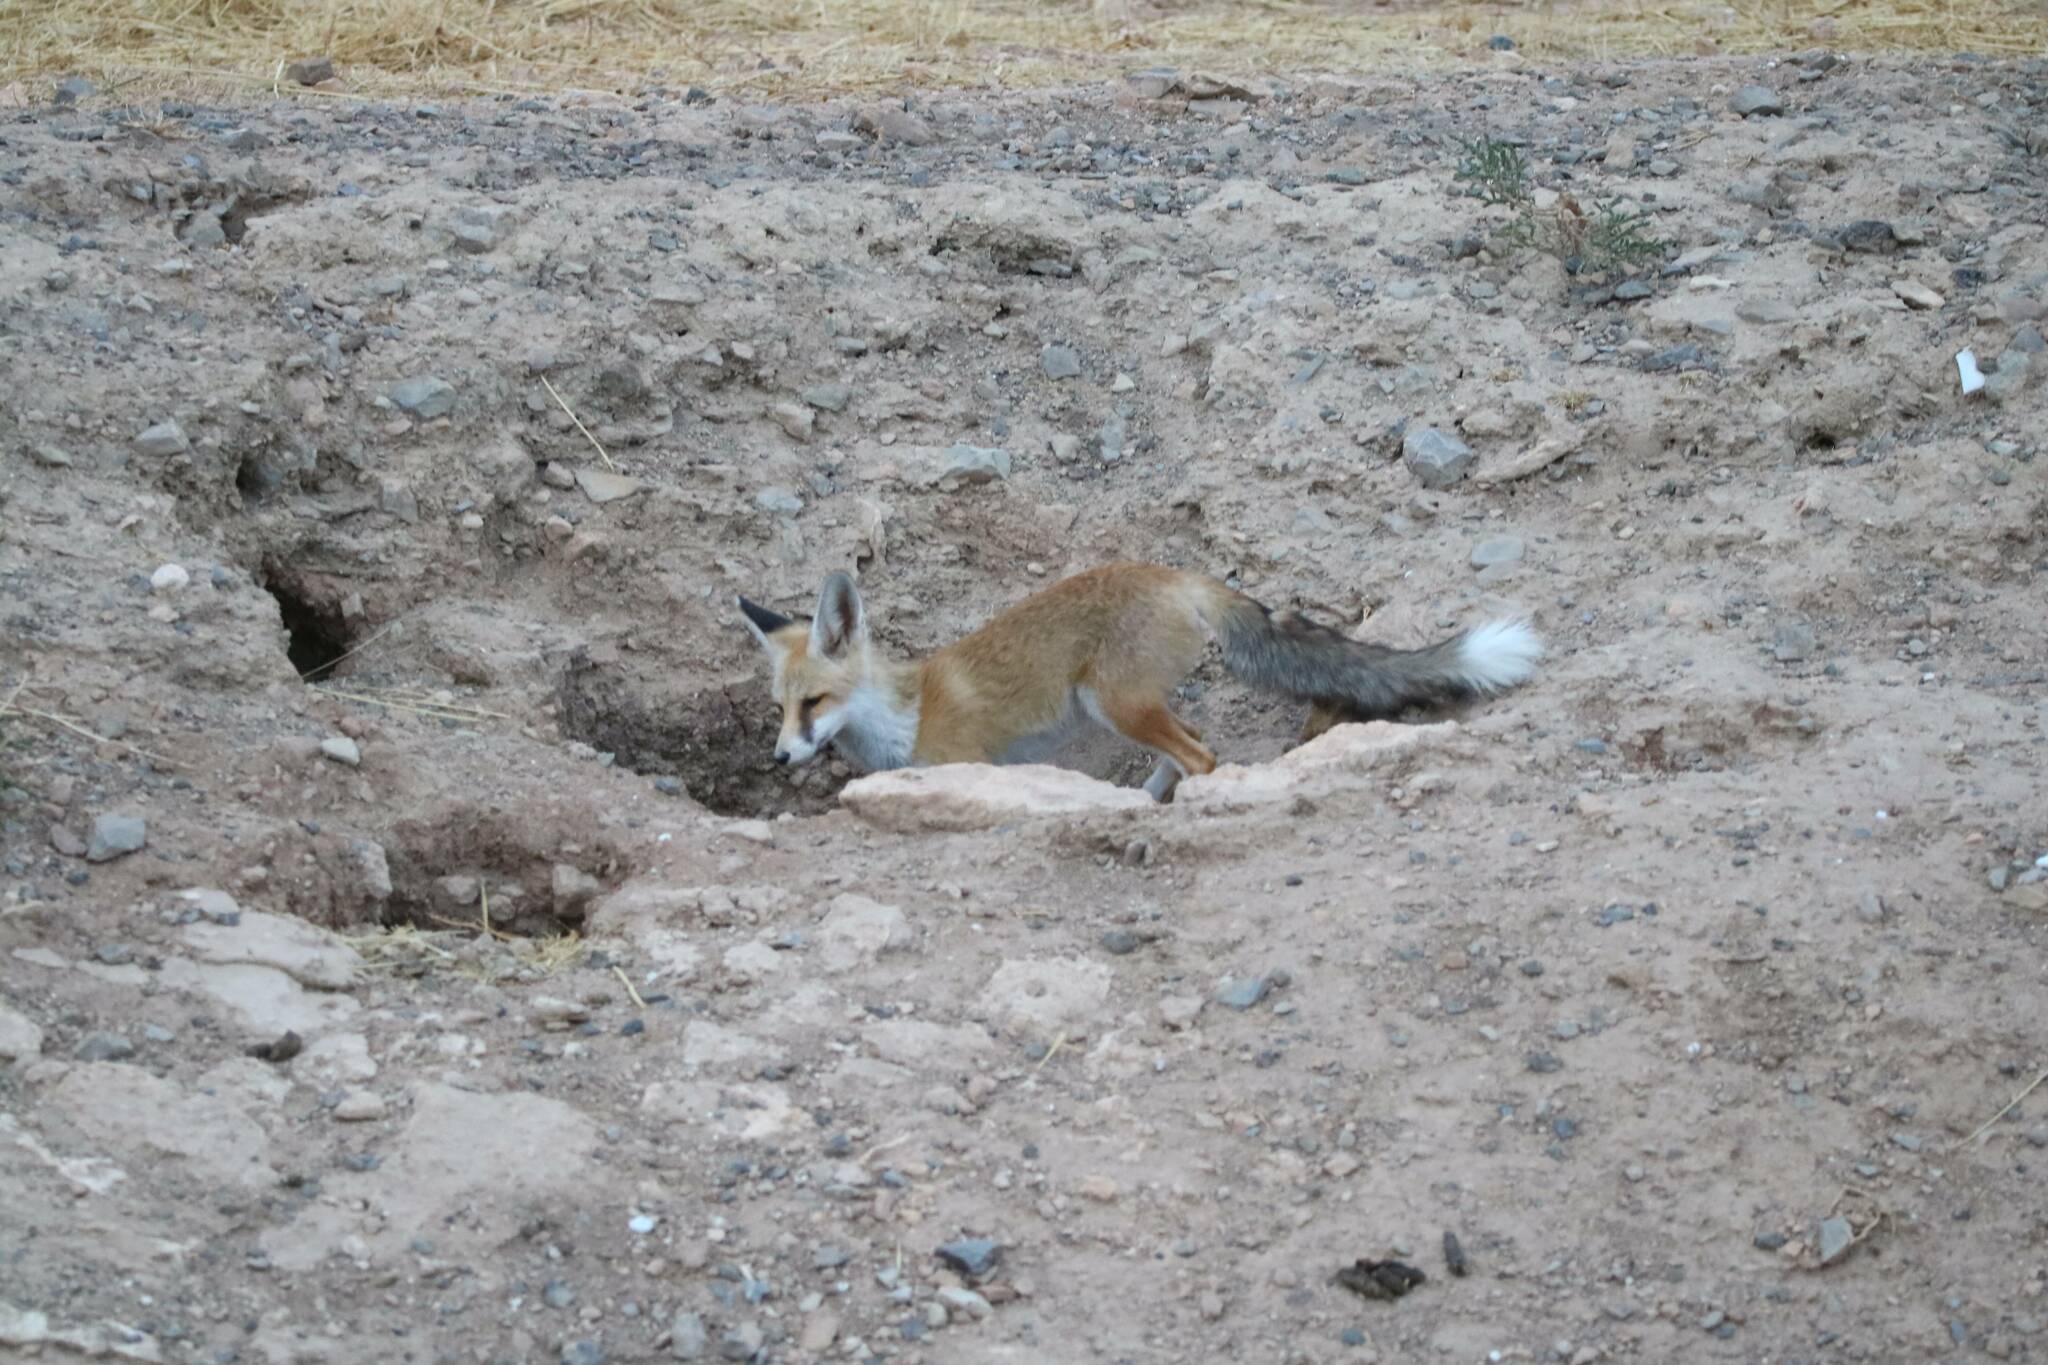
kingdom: Animalia
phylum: Chordata
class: Mammalia
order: Carnivora
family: Canidae
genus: Vulpes
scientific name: Vulpes vulpes
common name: Red fox
